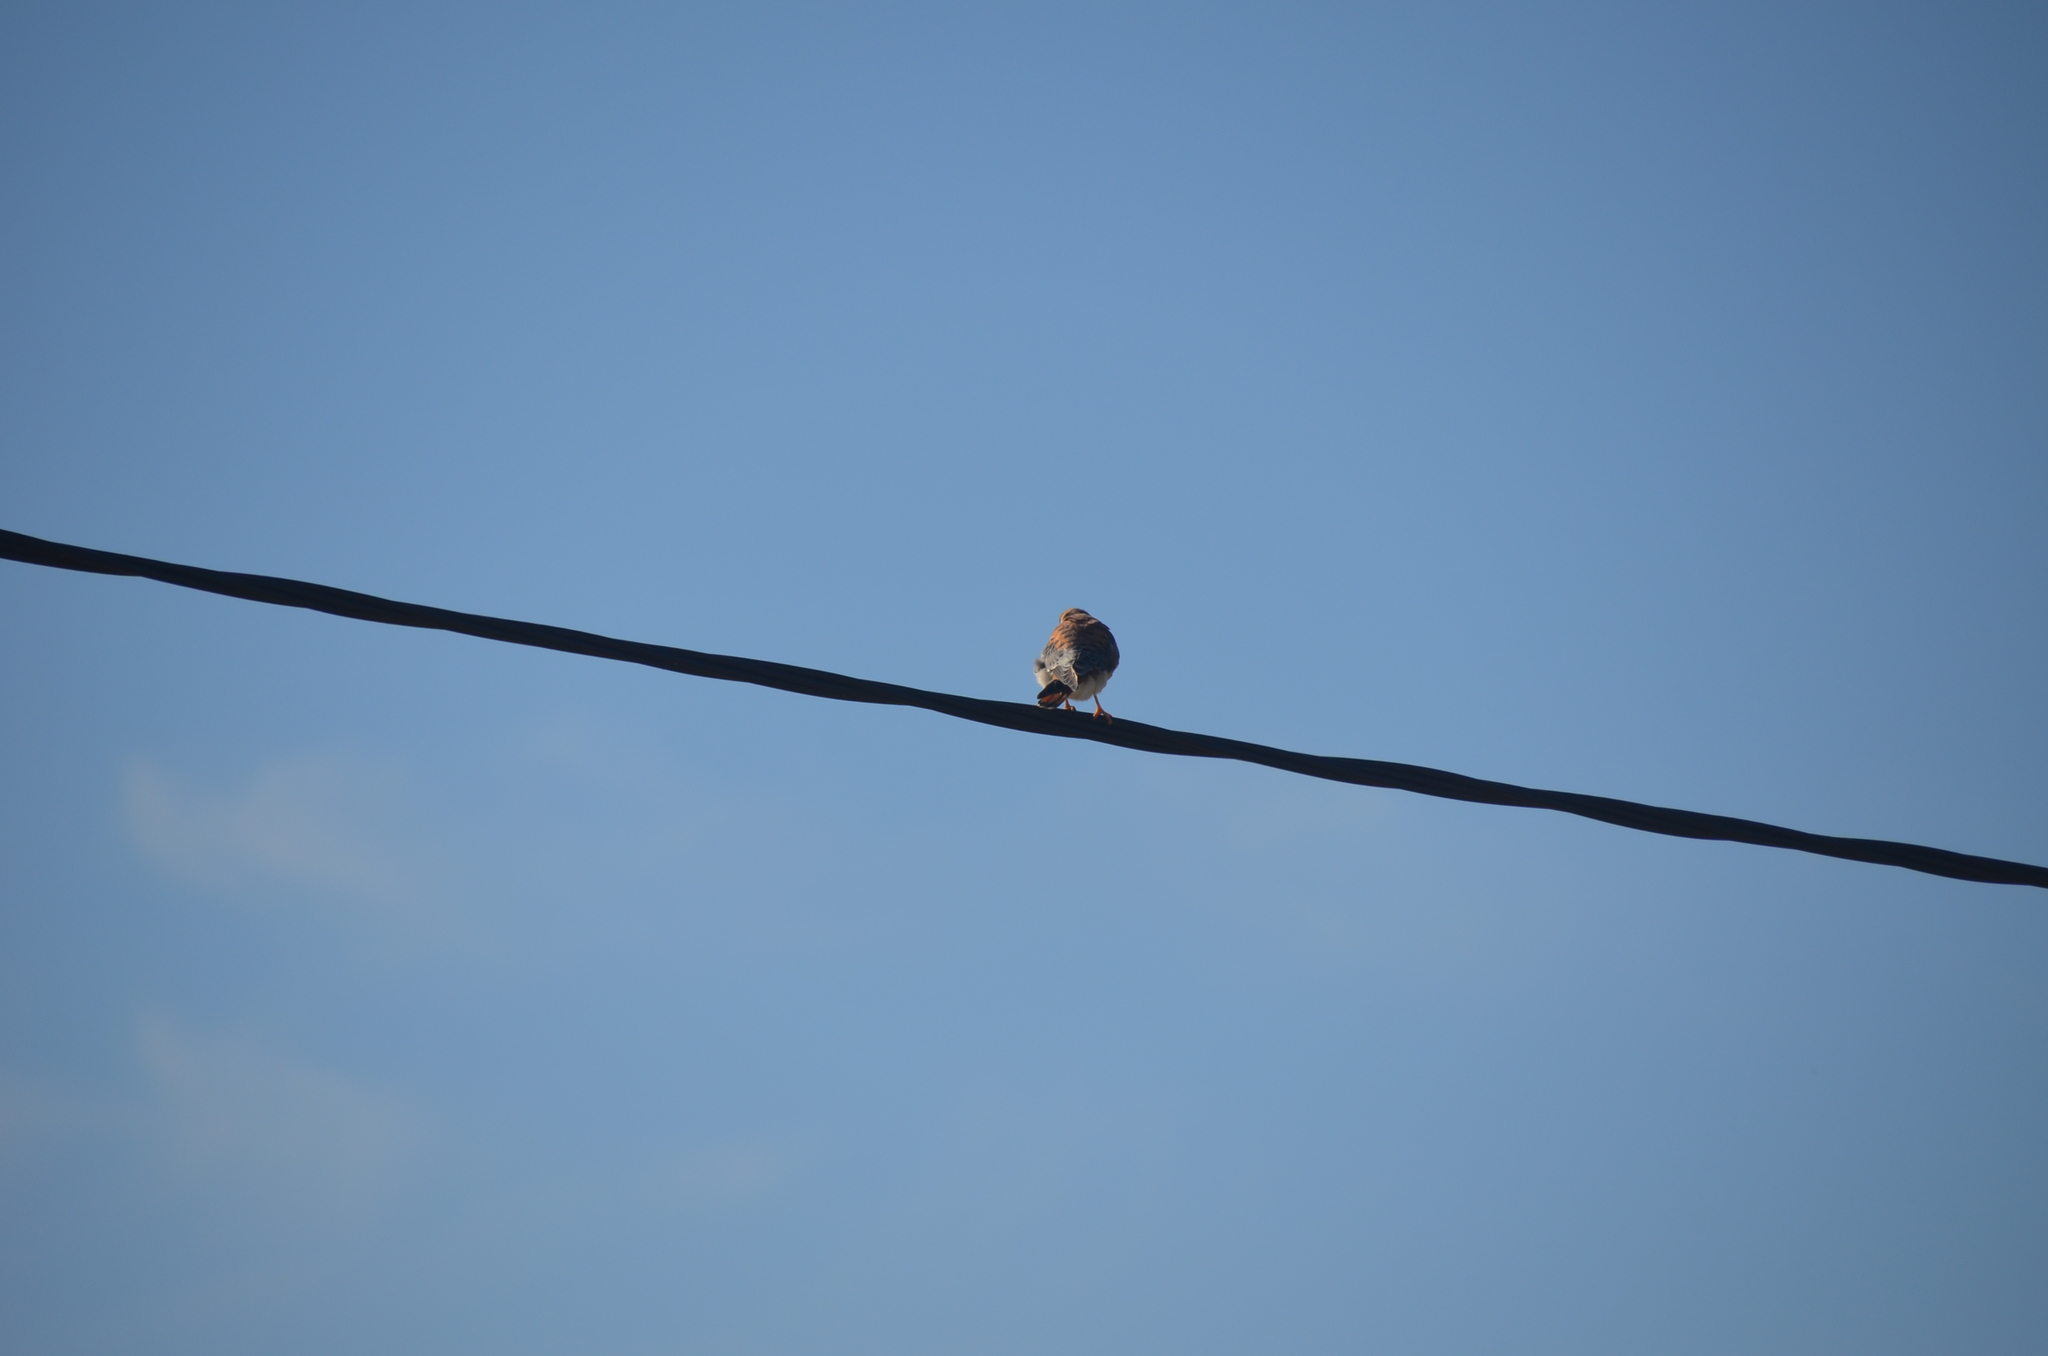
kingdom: Animalia
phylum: Chordata
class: Aves
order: Falconiformes
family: Falconidae
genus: Falco
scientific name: Falco sparverius
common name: American kestrel
